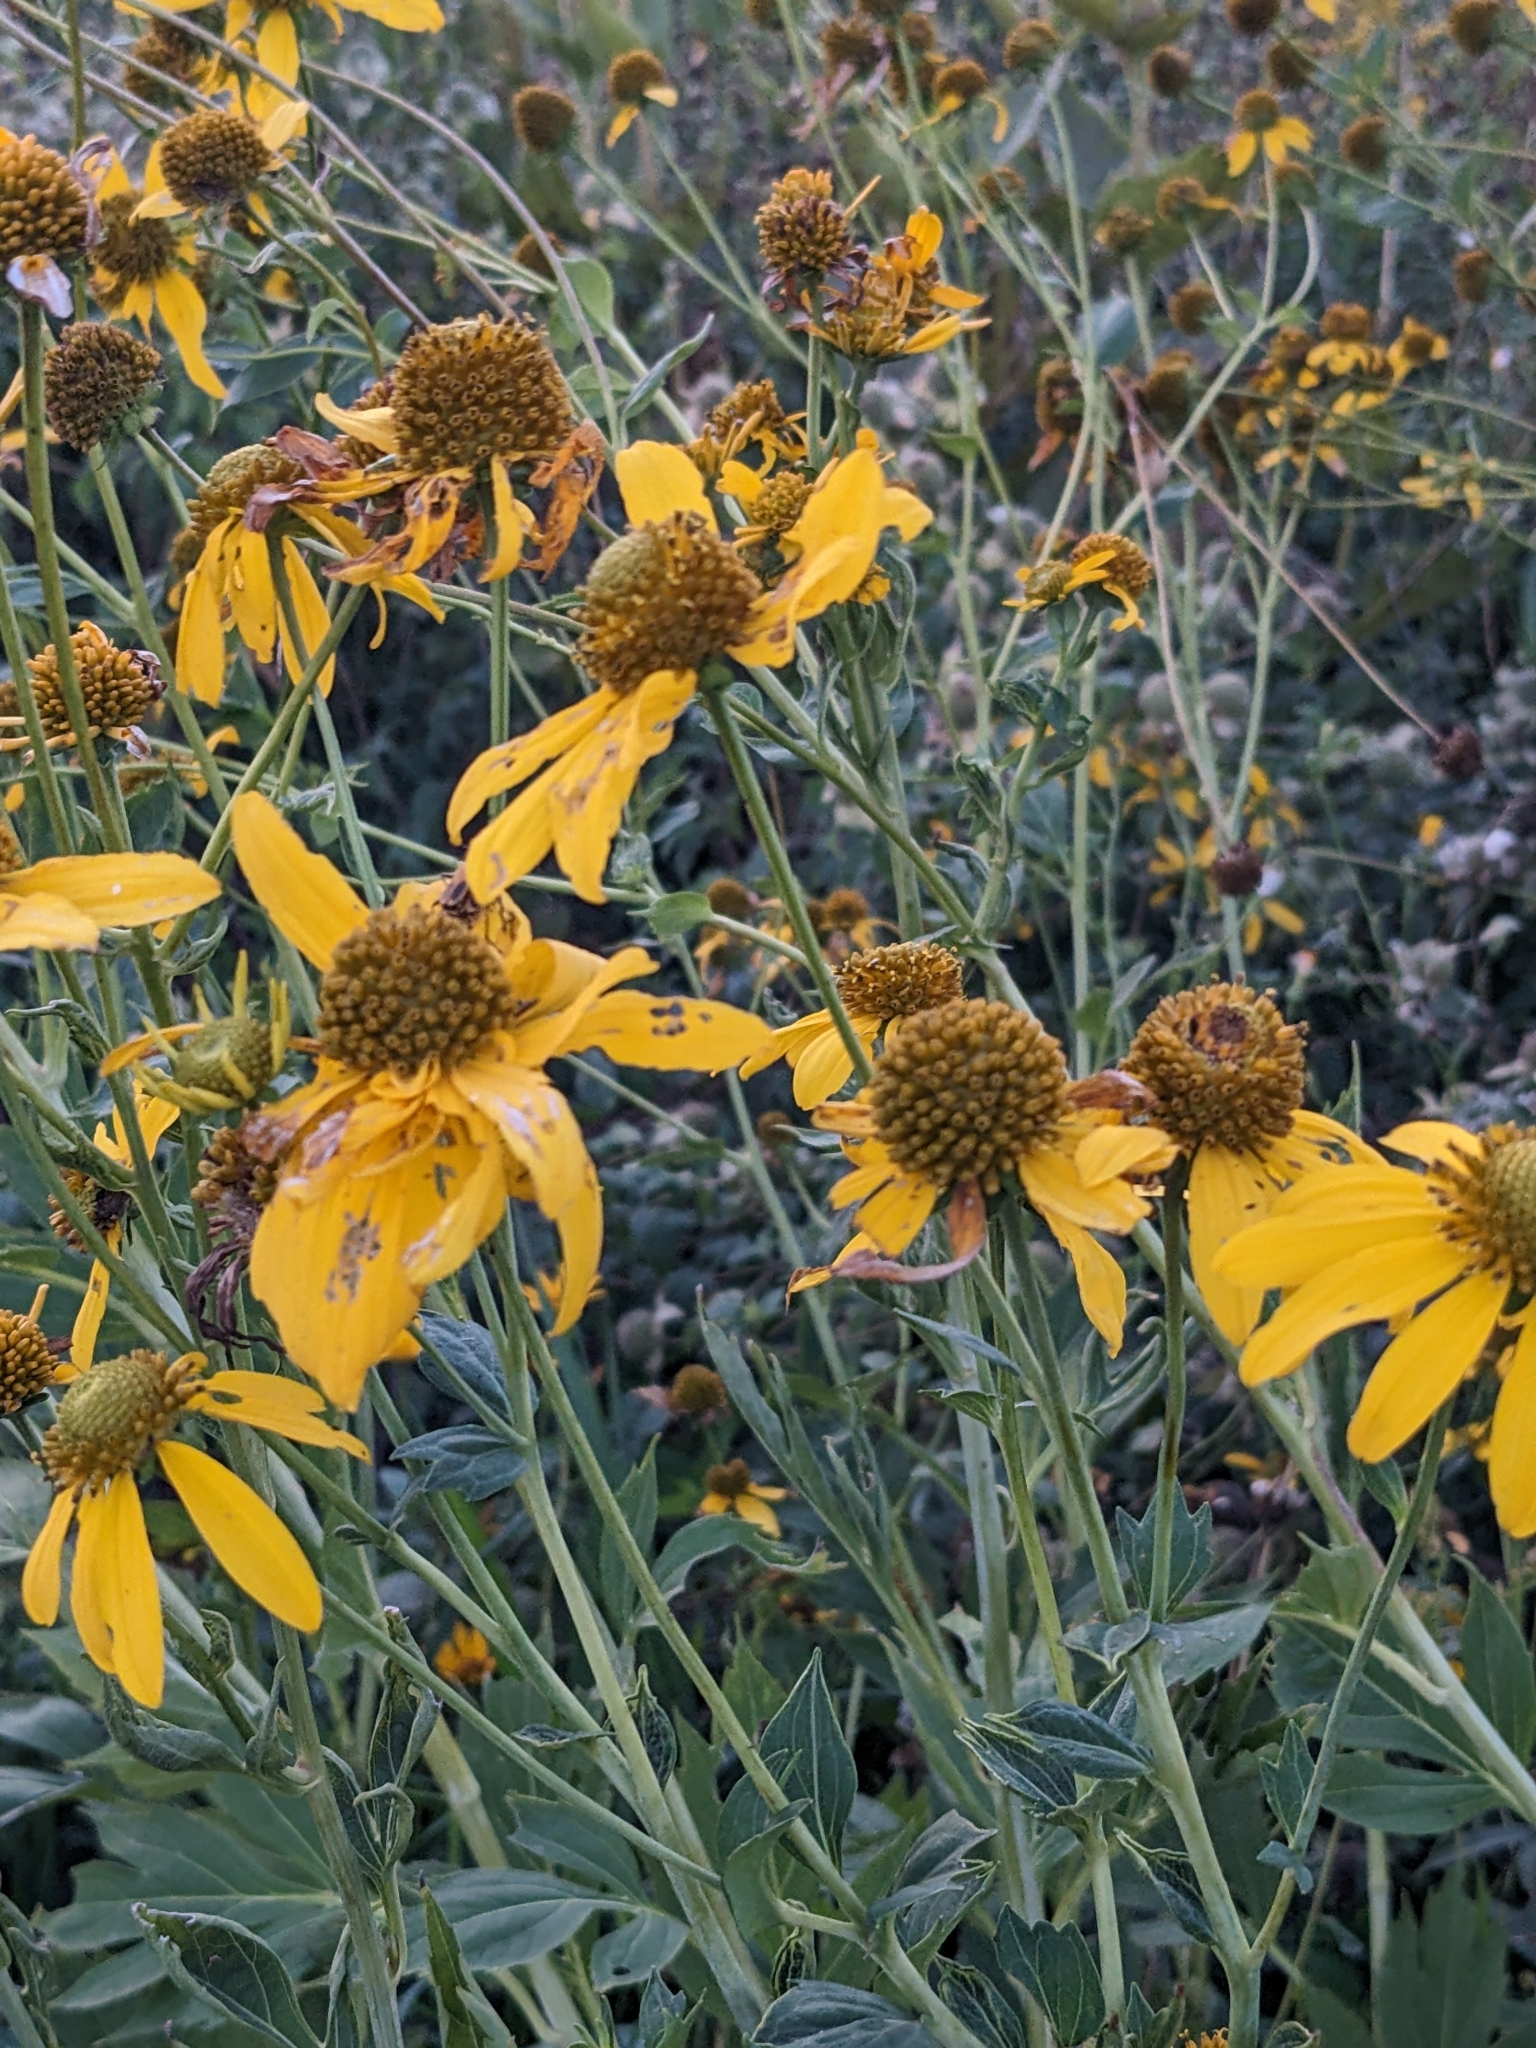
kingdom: Plantae
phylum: Tracheophyta
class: Magnoliopsida
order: Asterales
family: Asteraceae
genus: Rudbeckia
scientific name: Rudbeckia laciniata
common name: Coneflower
